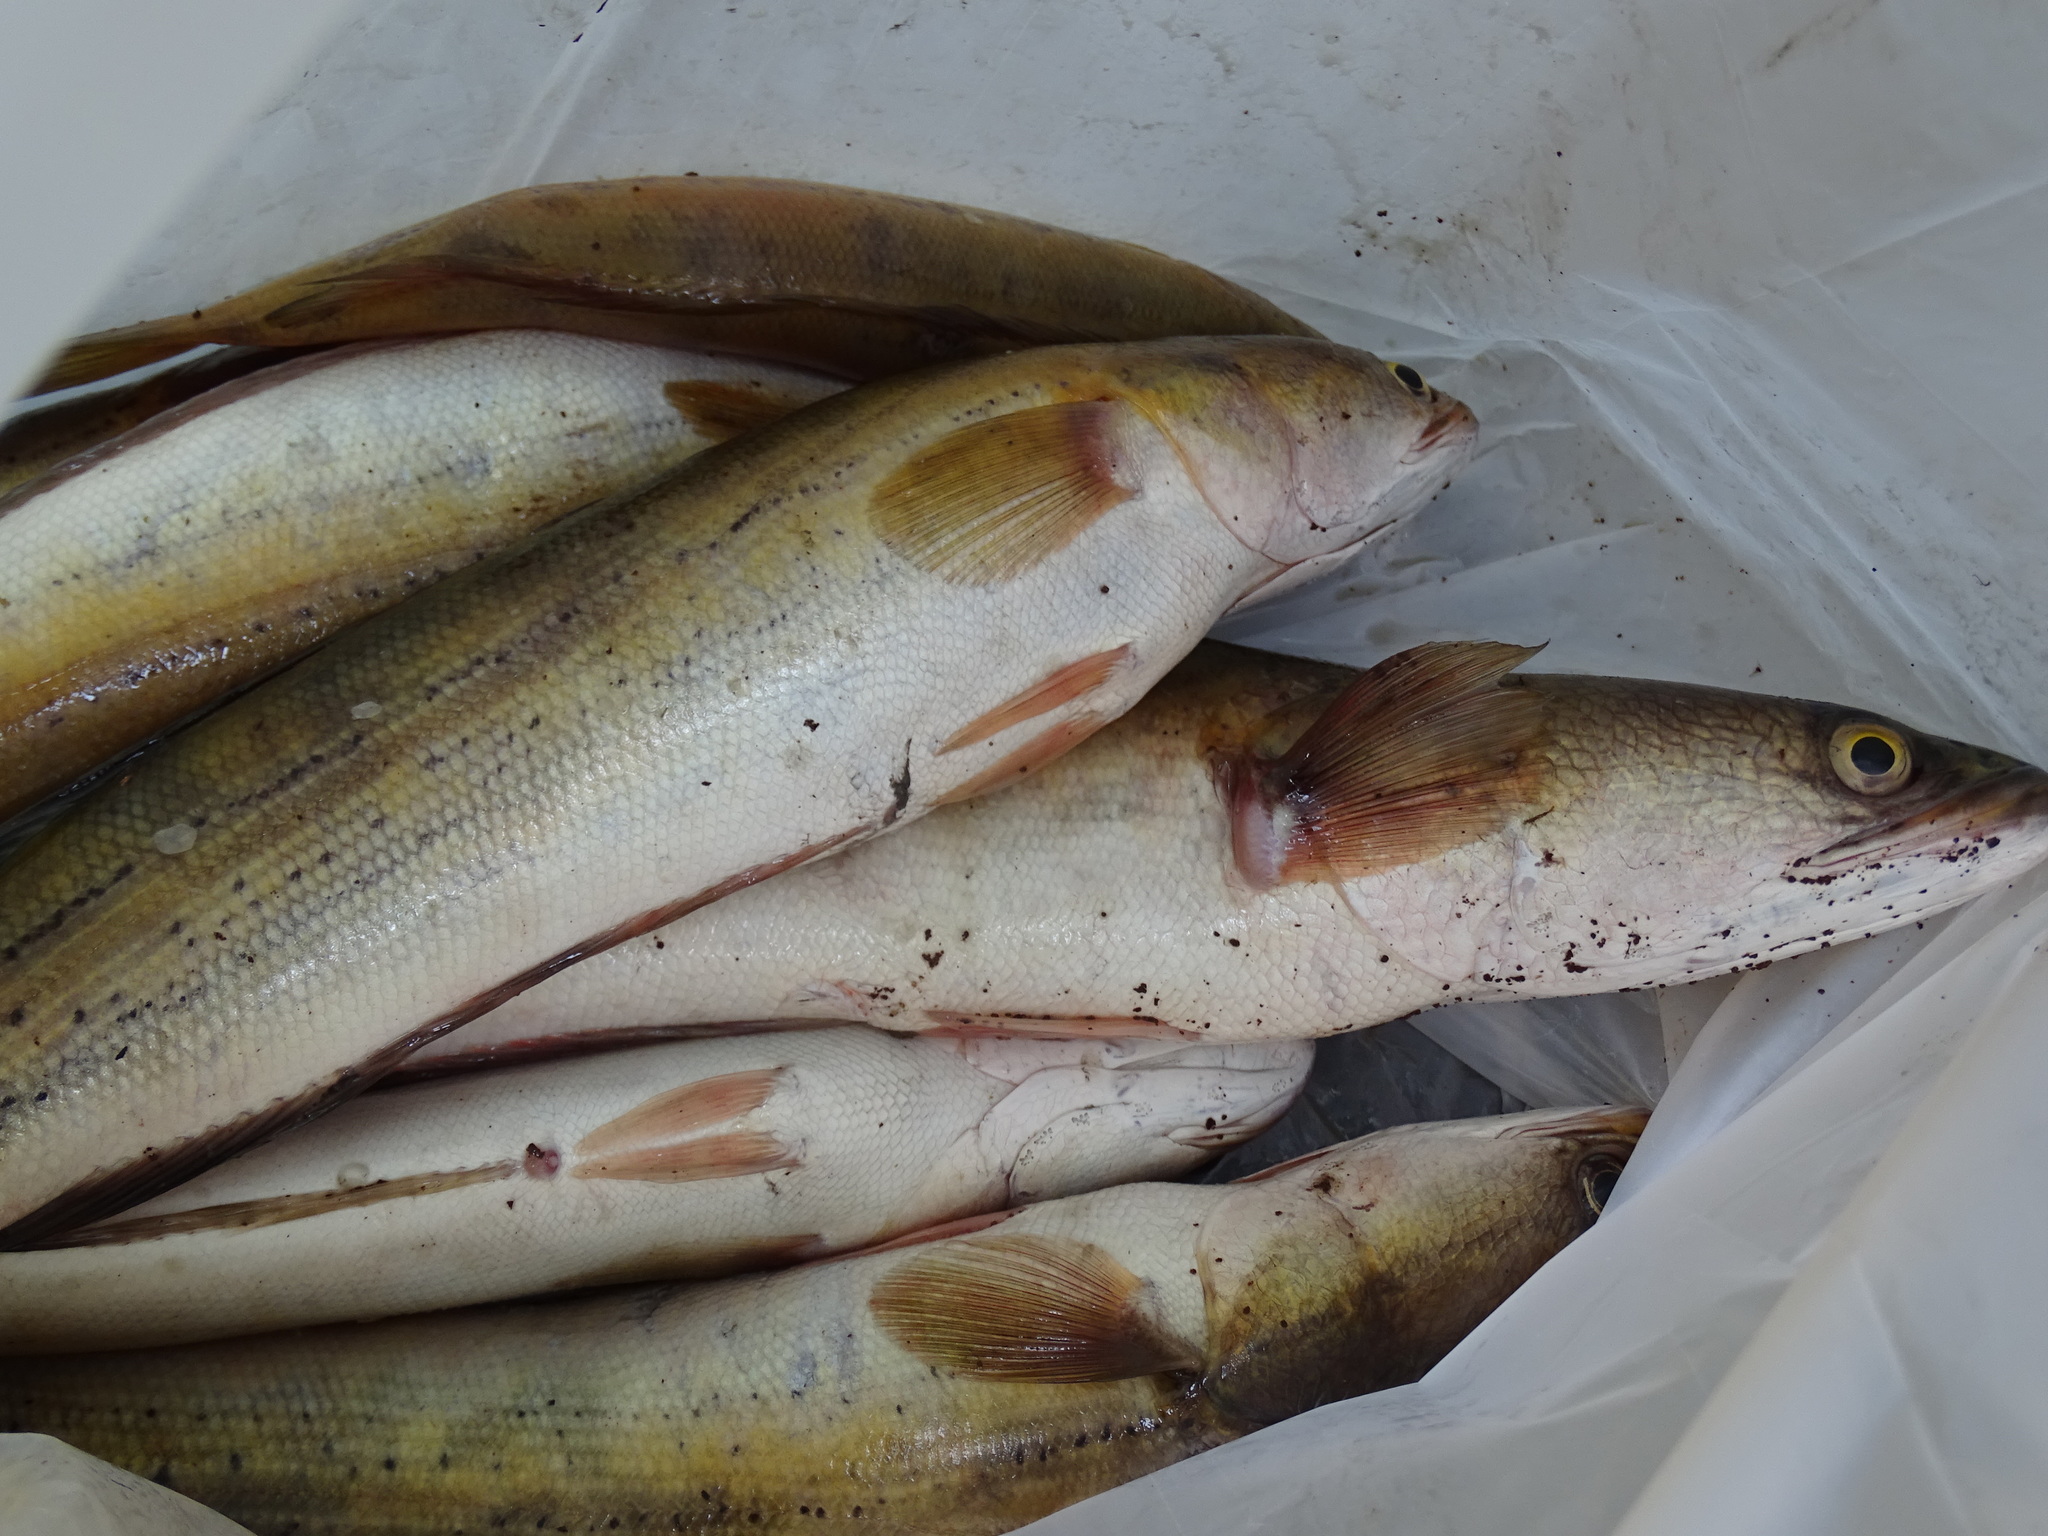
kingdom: Animalia
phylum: Chordata
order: Perciformes
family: Channidae
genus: Channa
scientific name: Channa diplogramma
